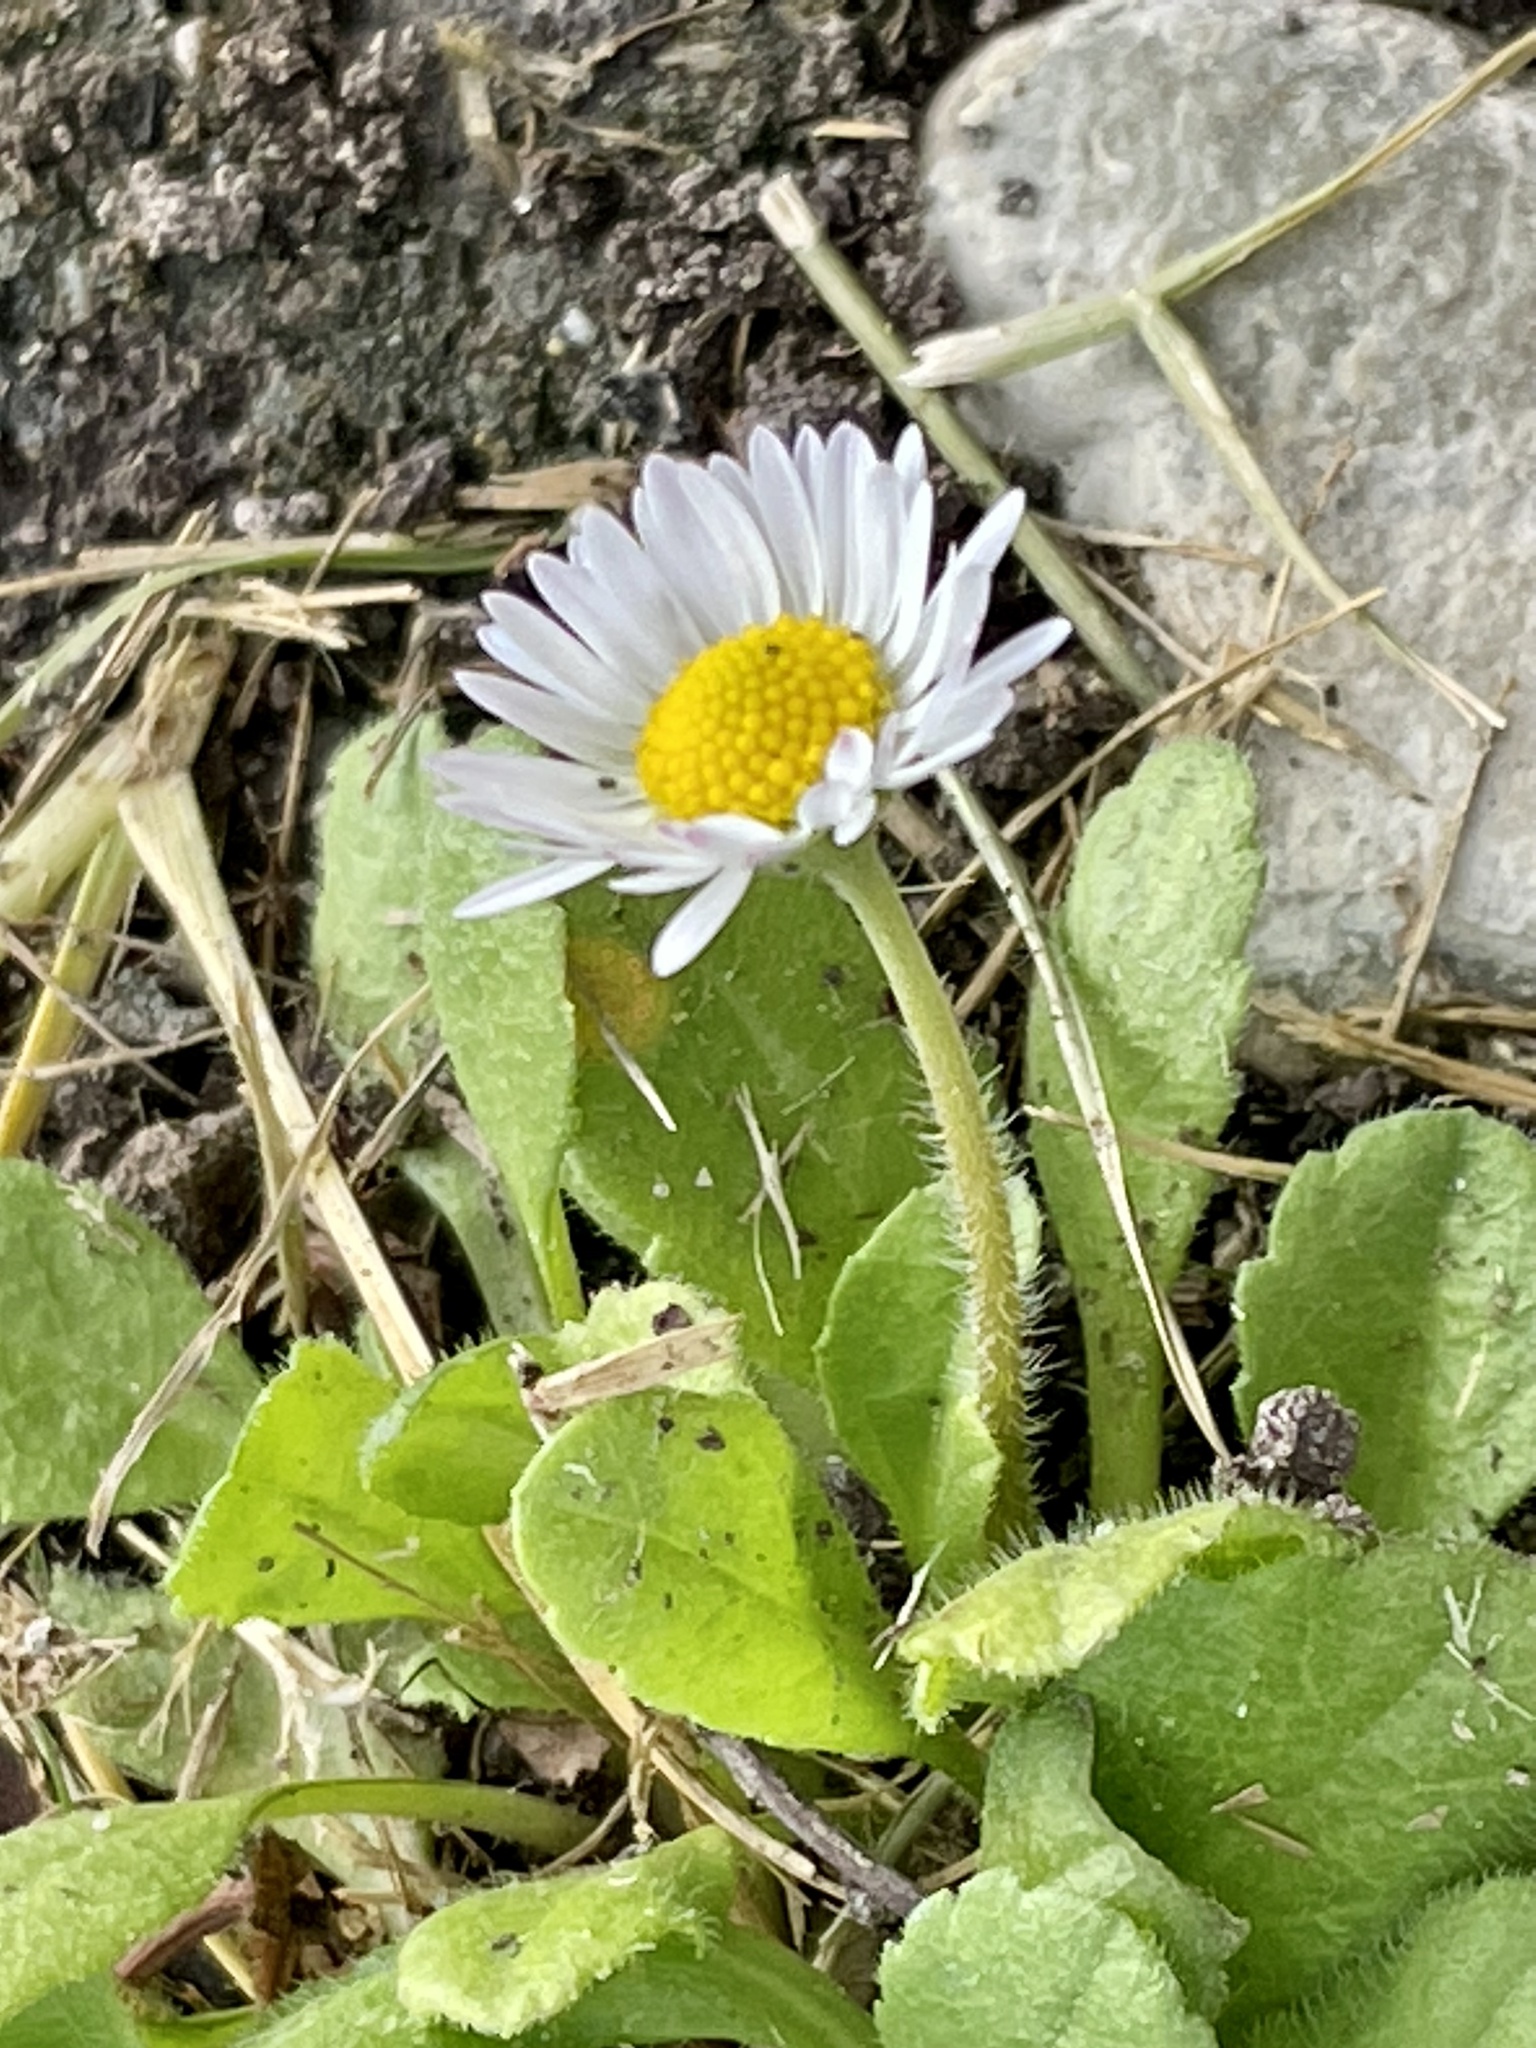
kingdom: Plantae
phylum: Tracheophyta
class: Magnoliopsida
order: Asterales
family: Asteraceae
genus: Bellis
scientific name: Bellis perennis
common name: Lawndaisy
